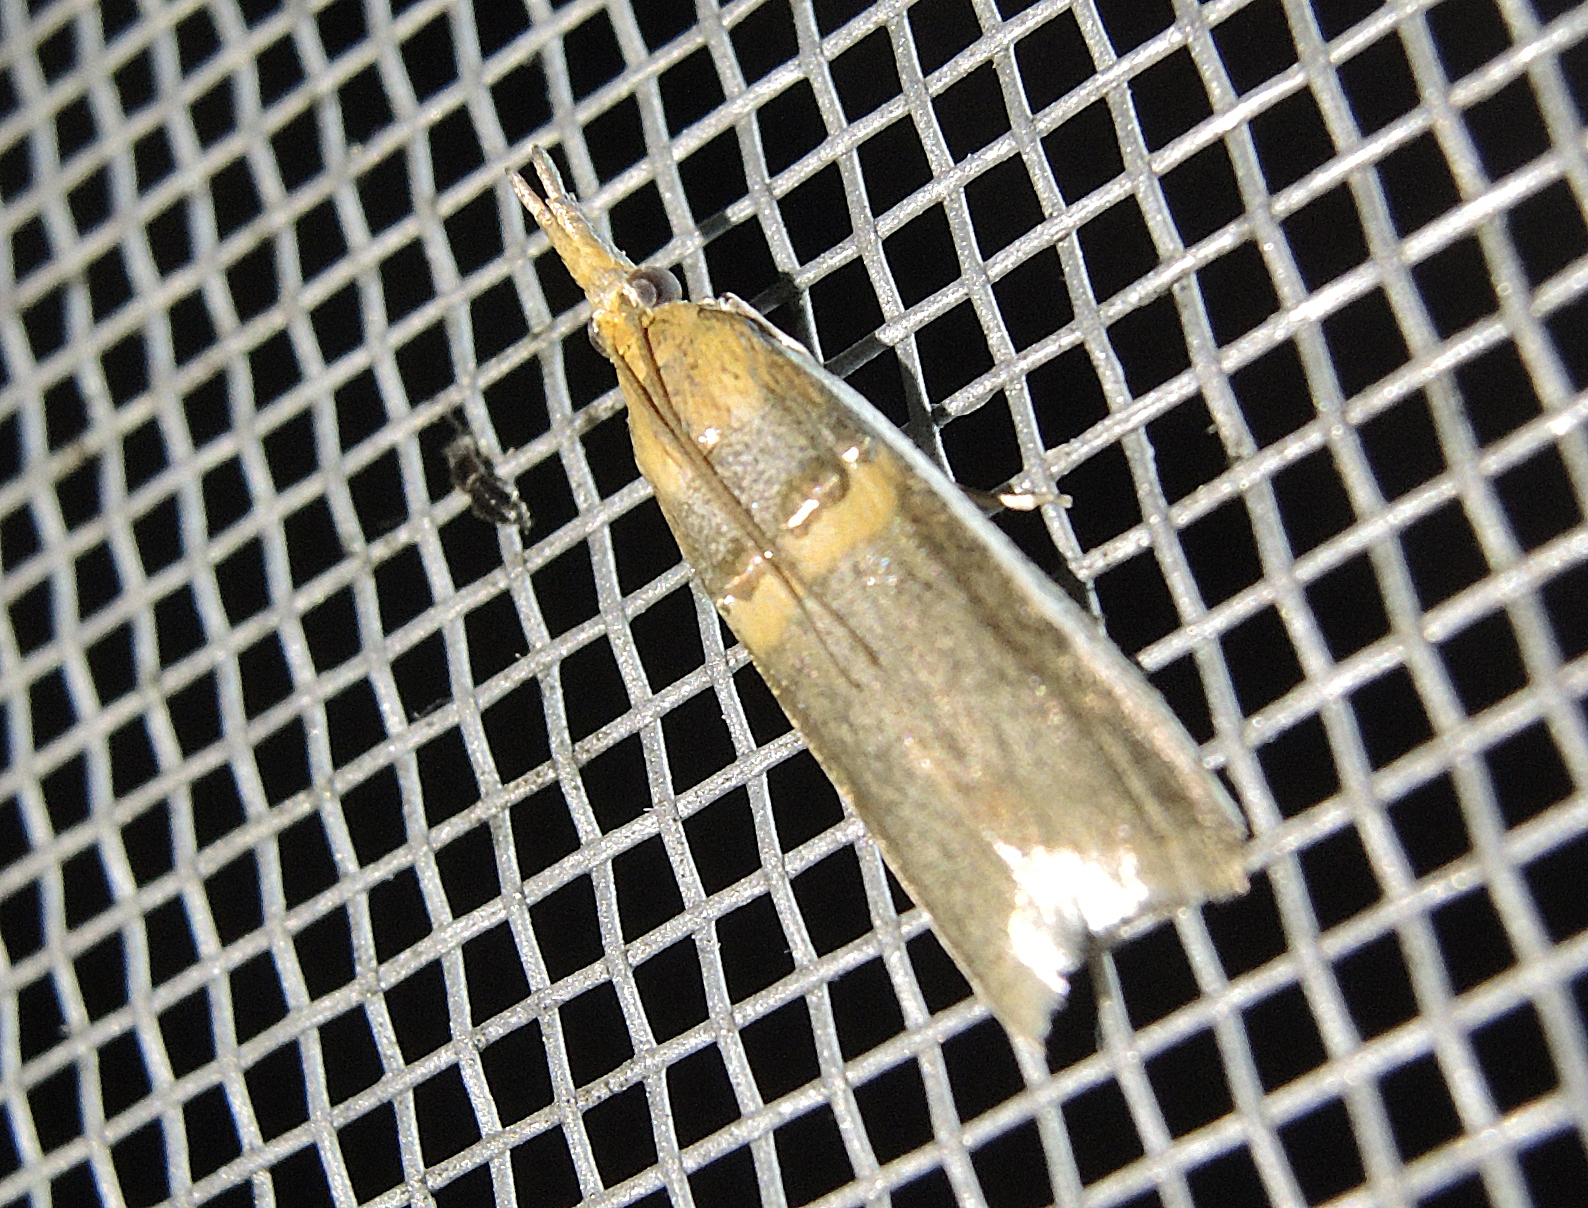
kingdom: Animalia
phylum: Arthropoda
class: Insecta
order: Lepidoptera
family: Pyralidae
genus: Etiella
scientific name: Etiella zinckenella
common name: Gold-banded etiella moth
